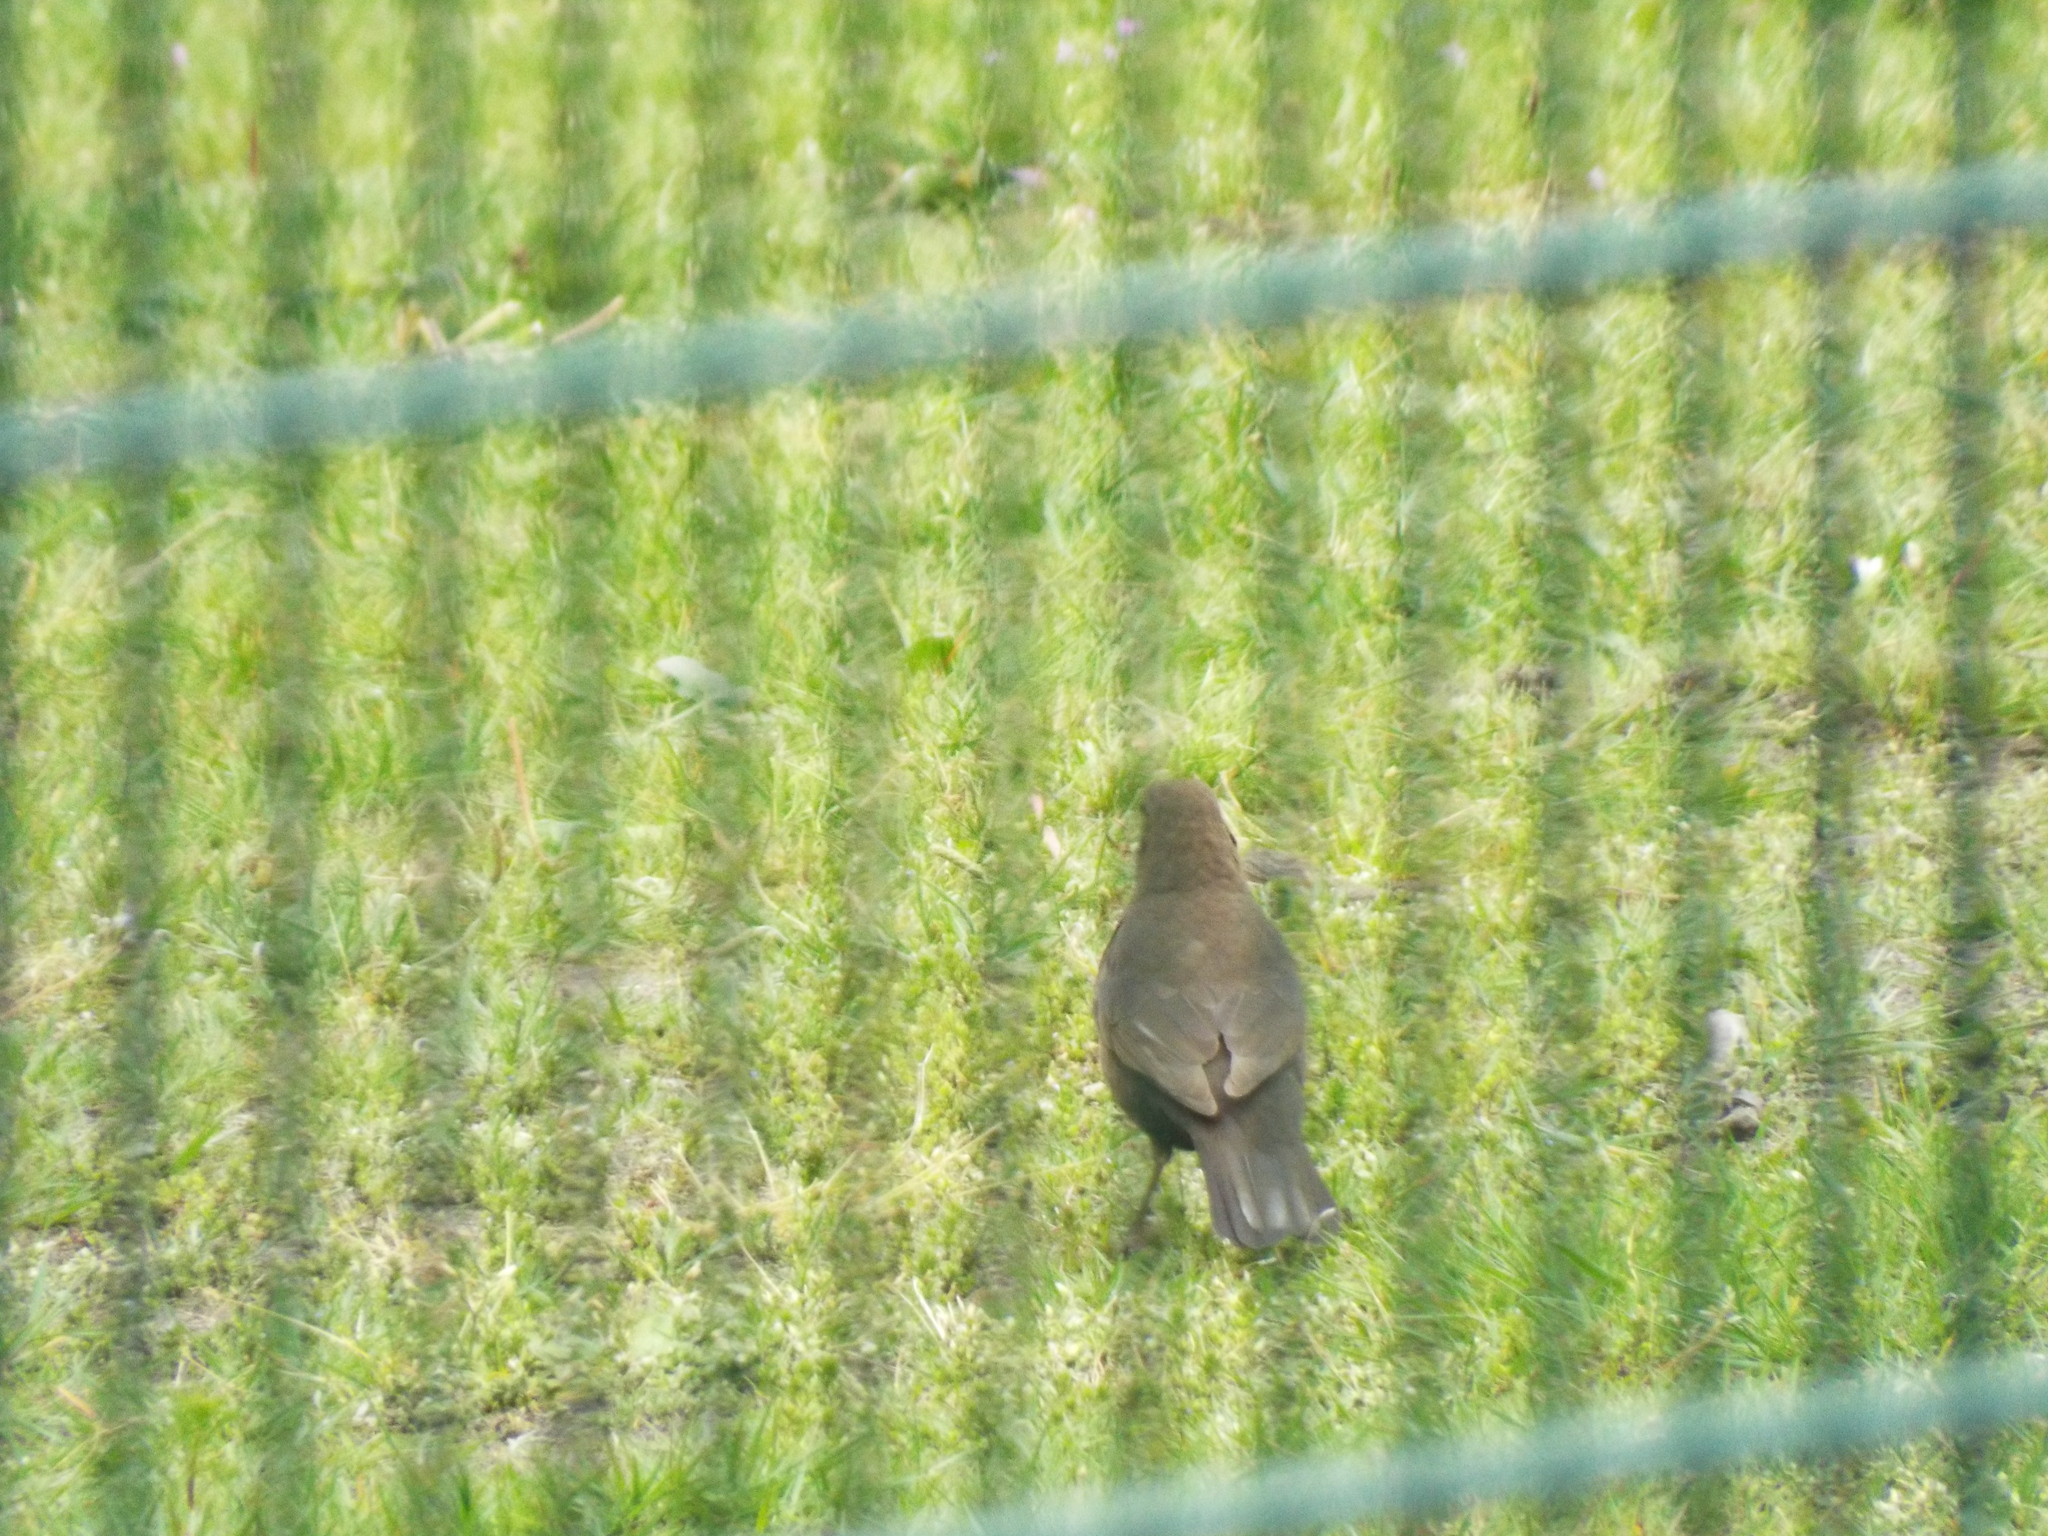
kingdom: Animalia
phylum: Chordata
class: Aves
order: Passeriformes
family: Turdidae
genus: Turdus
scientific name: Turdus merula
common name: Common blackbird
